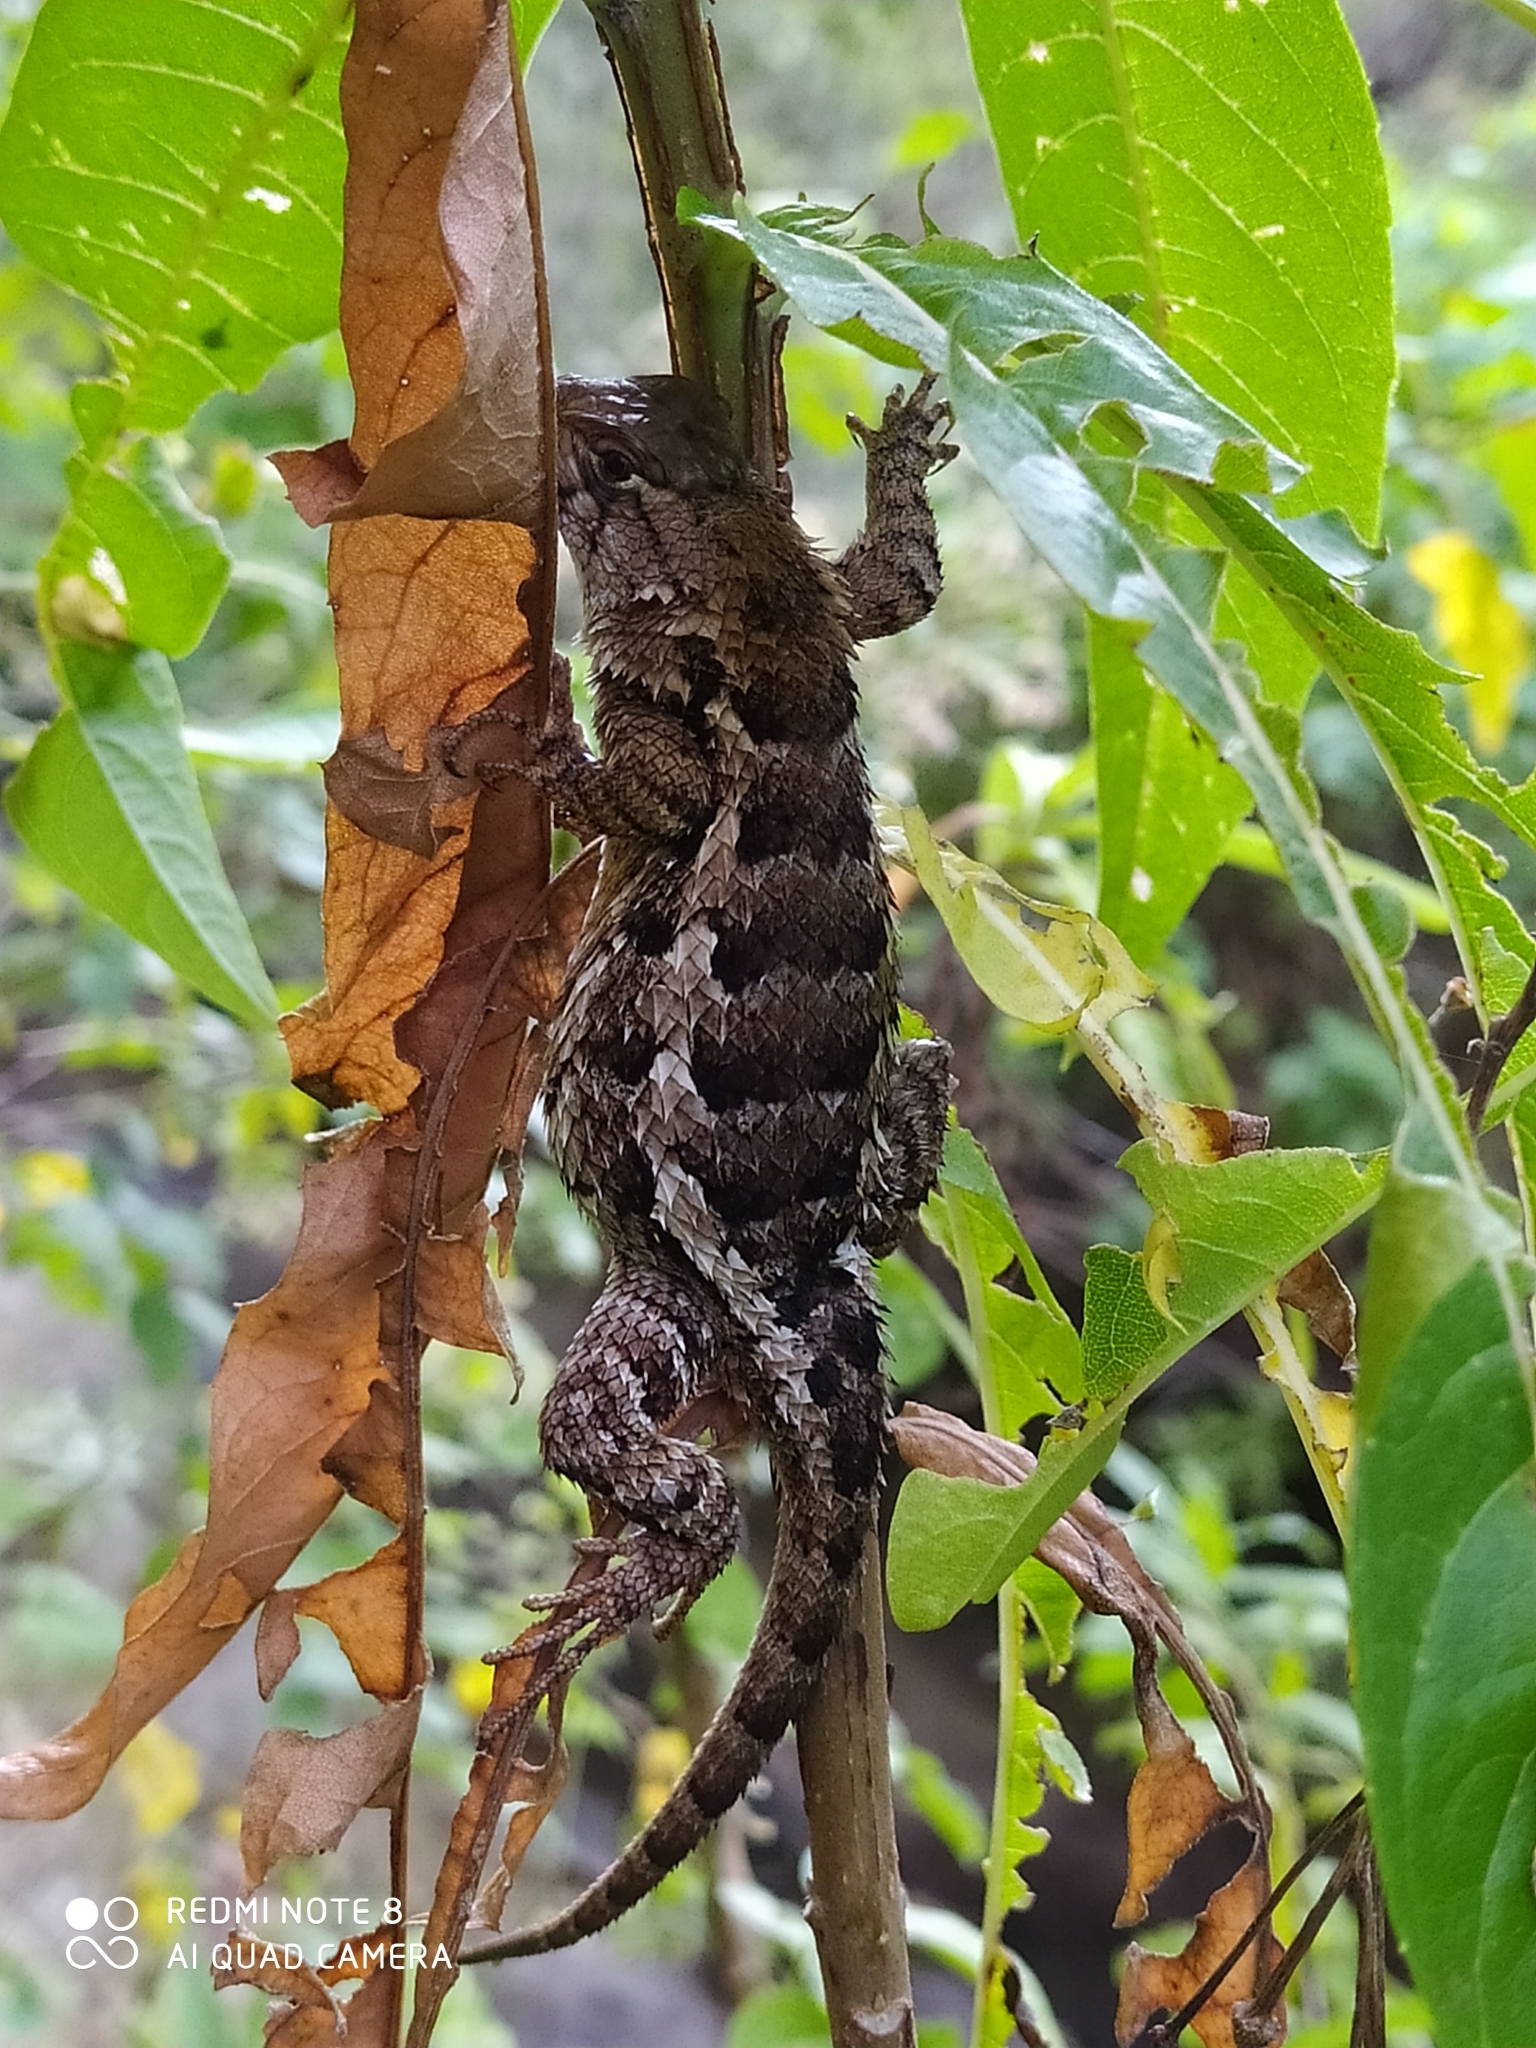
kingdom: Animalia
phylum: Chordata
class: Squamata
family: Phrynosomatidae
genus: Sceloporus
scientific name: Sceloporus spinosus
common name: Blue-spotted spiny lizard [caeruleopunctatus]
